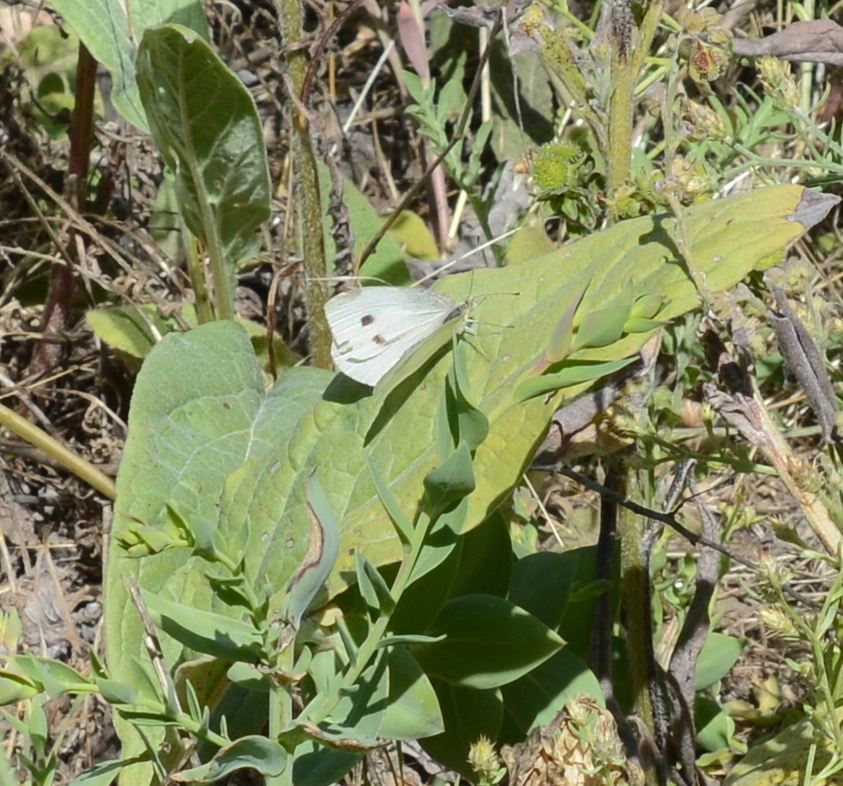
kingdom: Animalia
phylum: Arthropoda
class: Insecta
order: Lepidoptera
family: Pieridae
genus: Pieris
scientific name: Pieris rapae
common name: Small white
